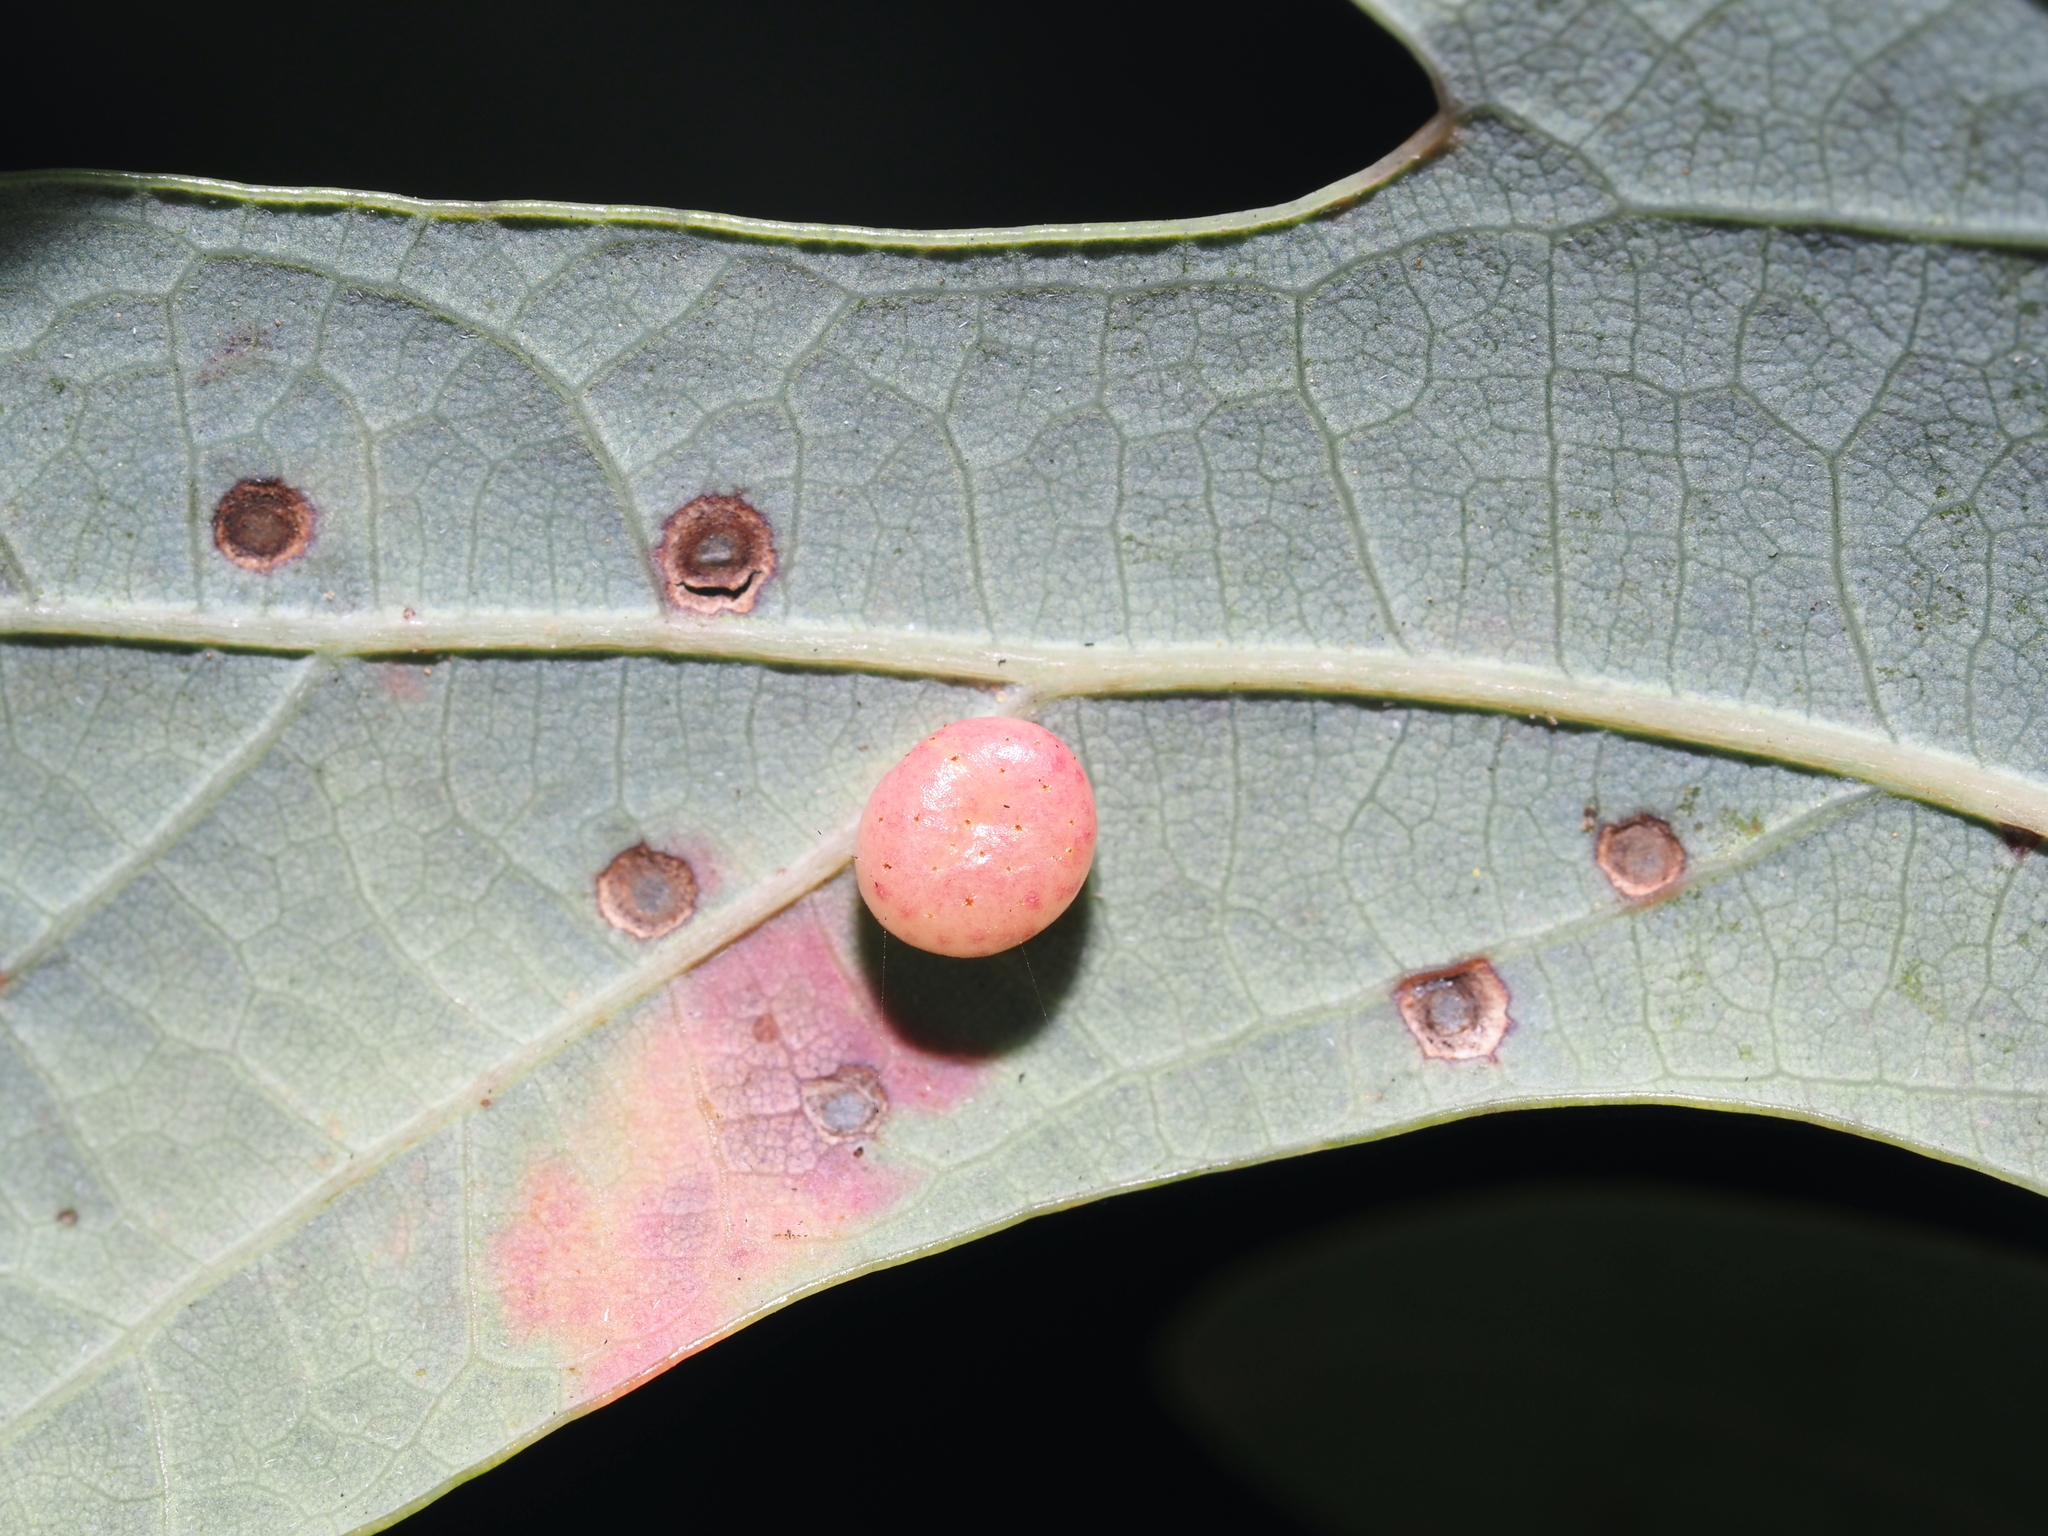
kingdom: Animalia
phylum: Arthropoda
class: Insecta
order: Hymenoptera
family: Cynipidae
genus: Phylloteras
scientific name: Phylloteras
